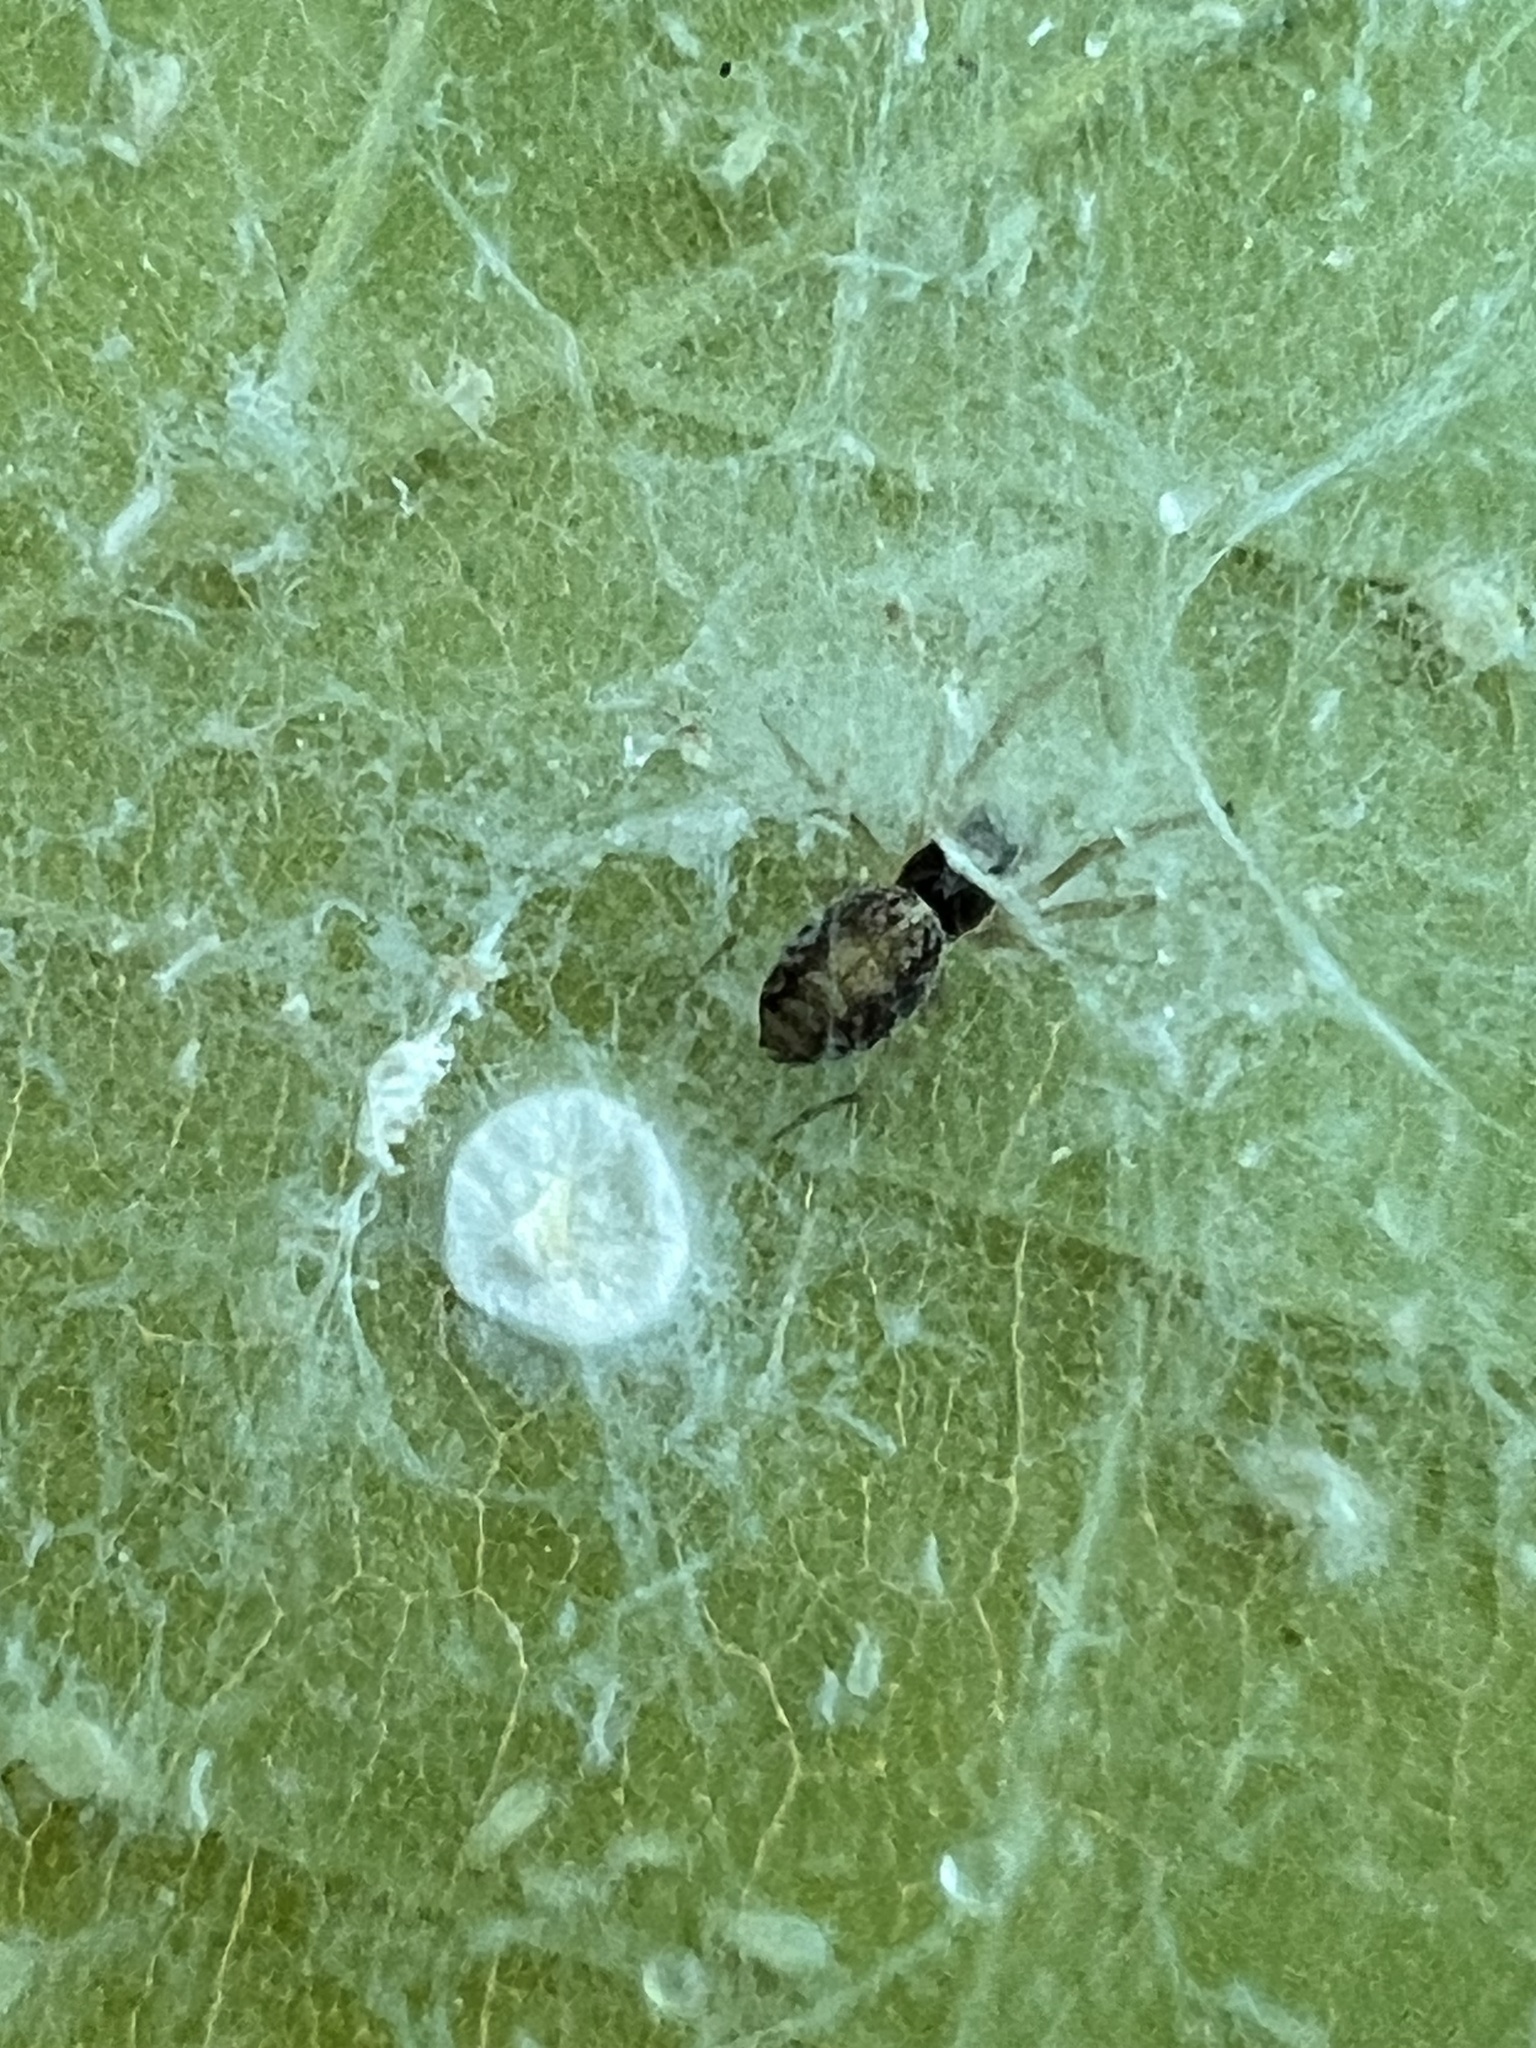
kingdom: Animalia
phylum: Arthropoda
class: Arachnida
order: Araneae
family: Dictynidae
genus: Emblyna
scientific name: Emblyna sublata
